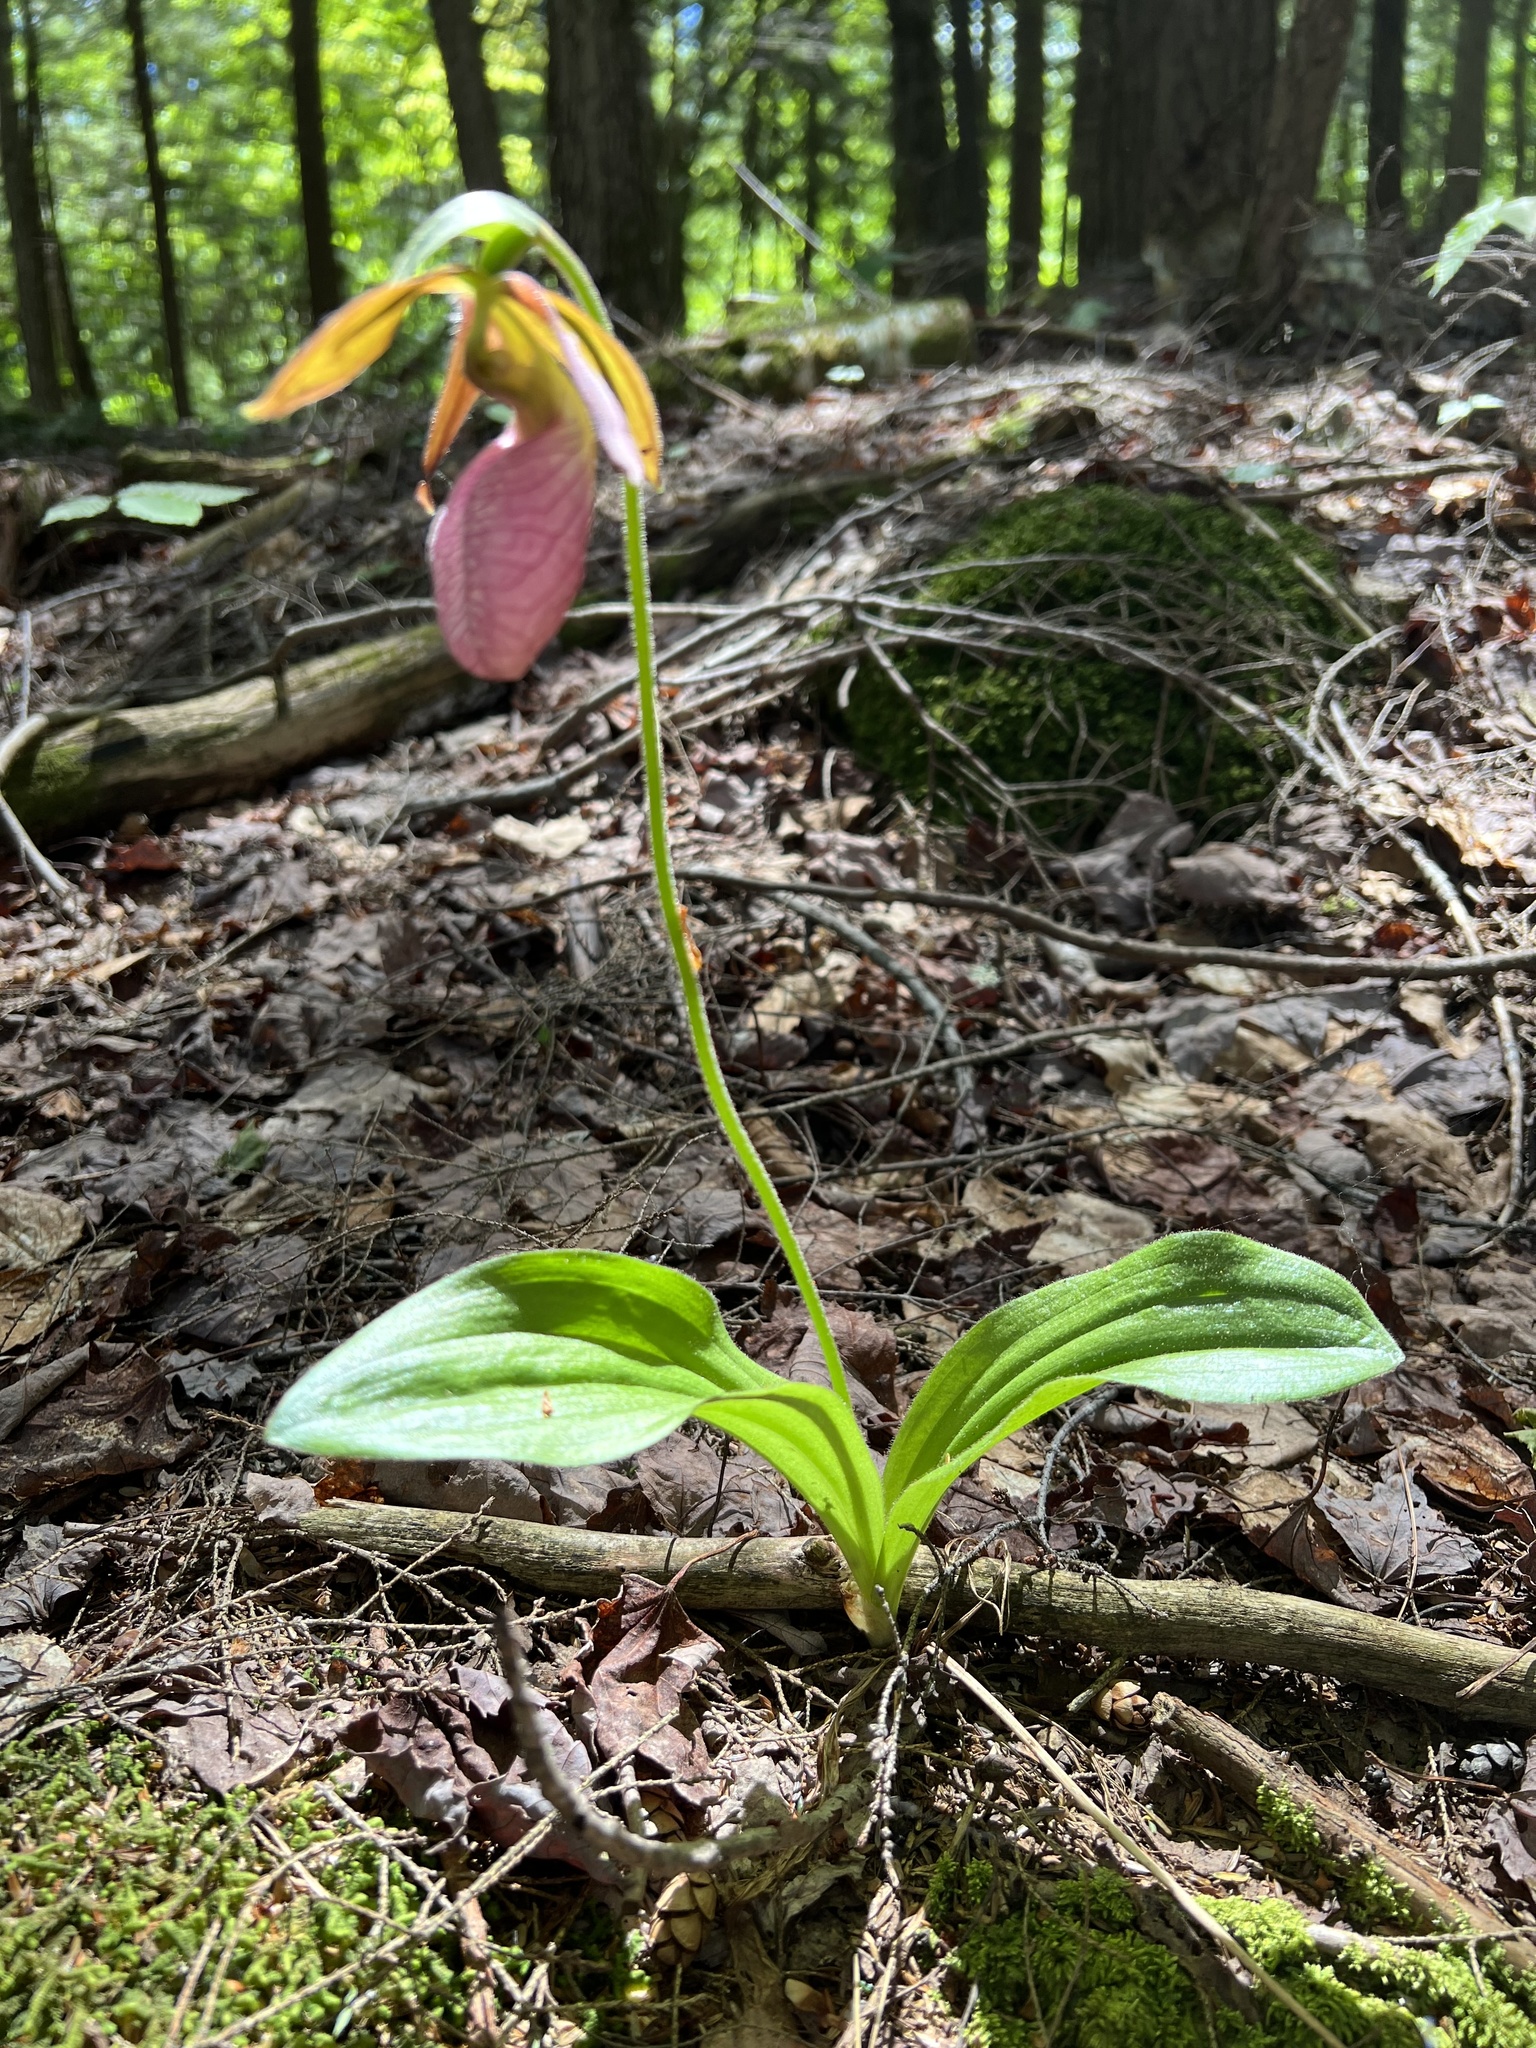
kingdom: Plantae
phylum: Tracheophyta
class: Liliopsida
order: Asparagales
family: Orchidaceae
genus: Cypripedium
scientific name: Cypripedium acaule
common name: Pink lady's-slipper
